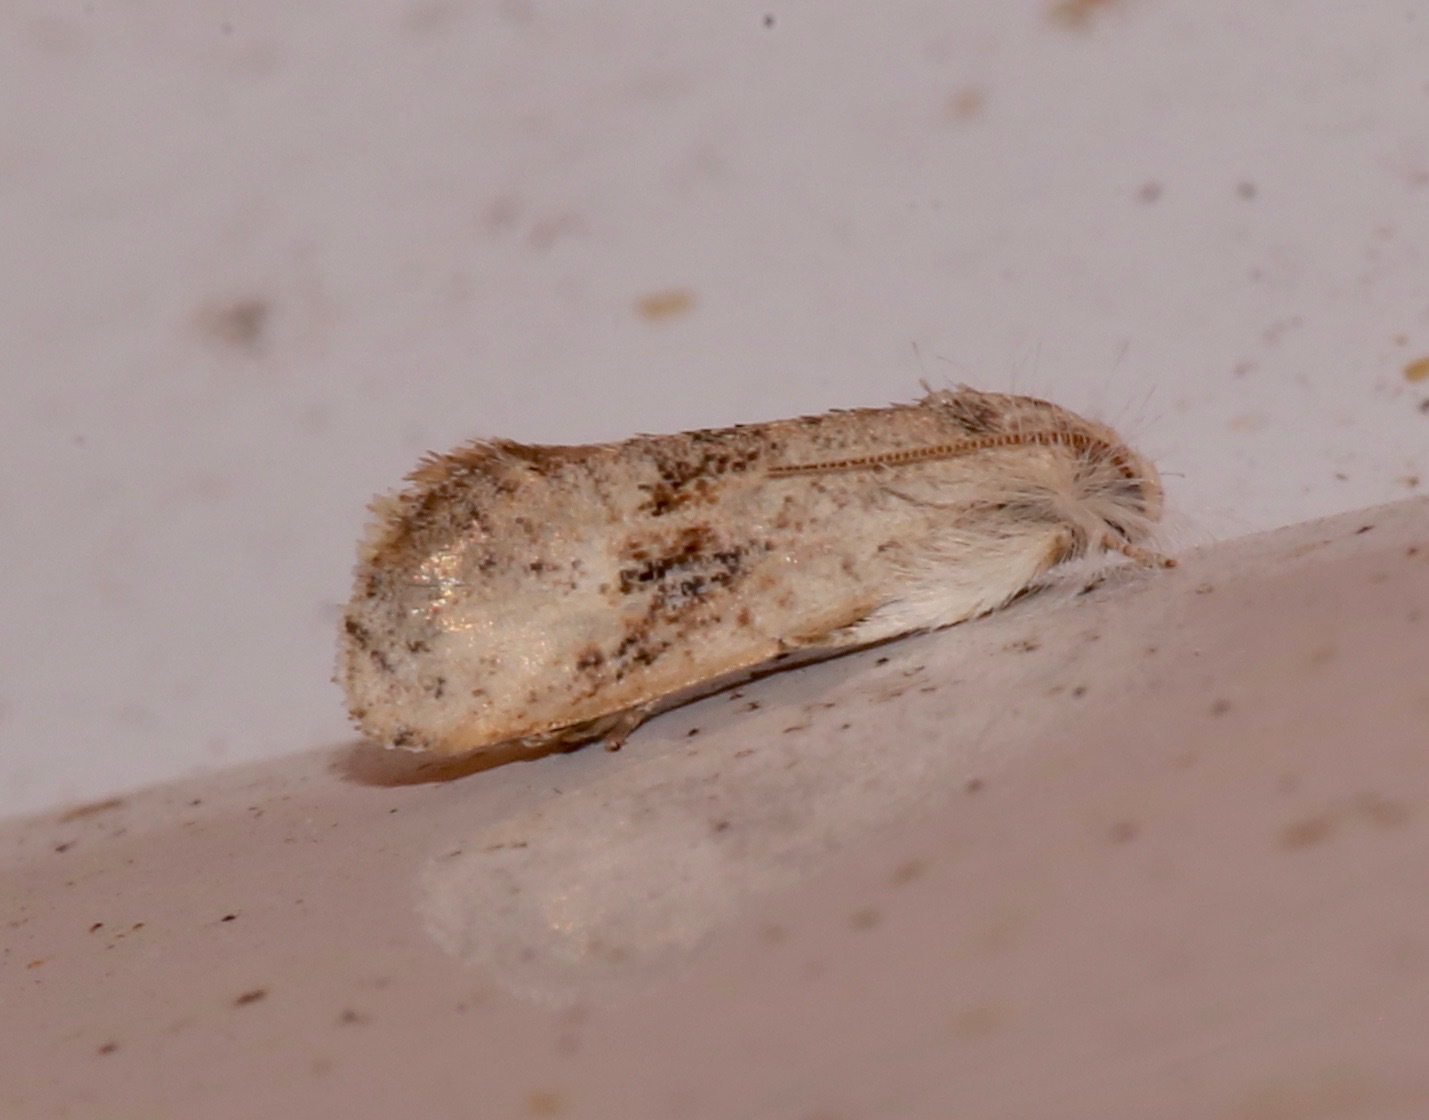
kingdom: Animalia
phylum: Arthropoda
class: Insecta
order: Lepidoptera
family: Tineidae
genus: Acrolophus
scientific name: Acrolophus mycetophagus
